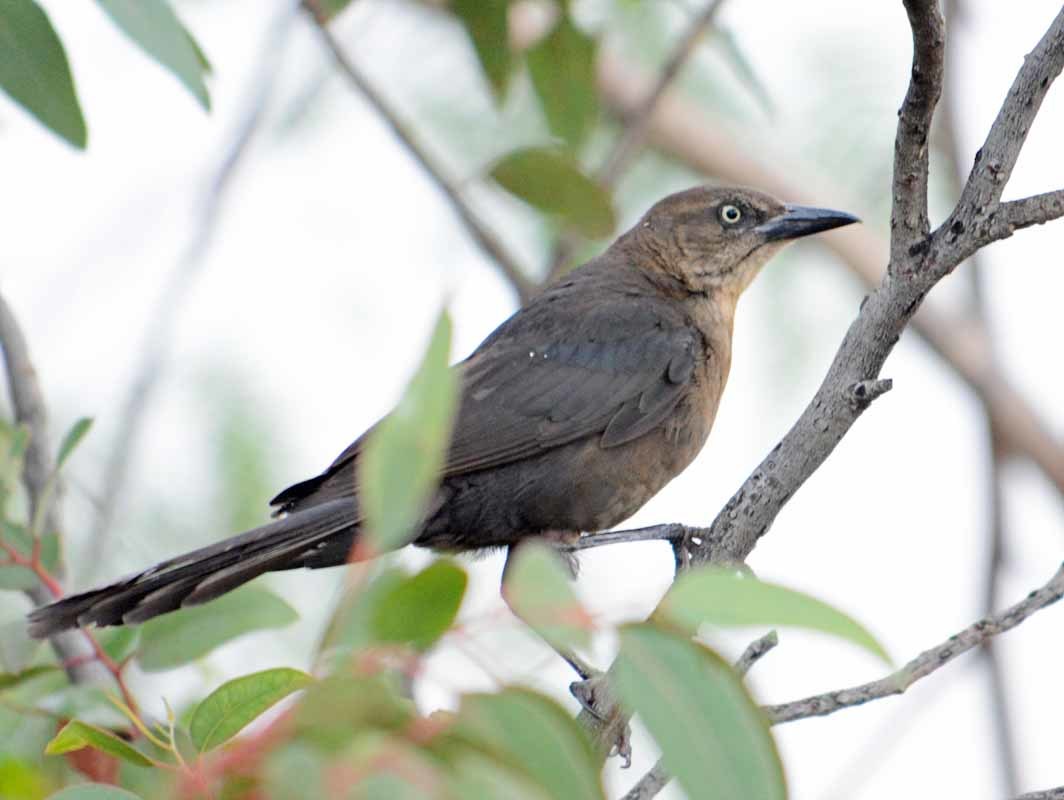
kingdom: Animalia
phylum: Chordata
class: Aves
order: Passeriformes
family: Icteridae
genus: Quiscalus
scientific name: Quiscalus mexicanus
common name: Great-tailed grackle
